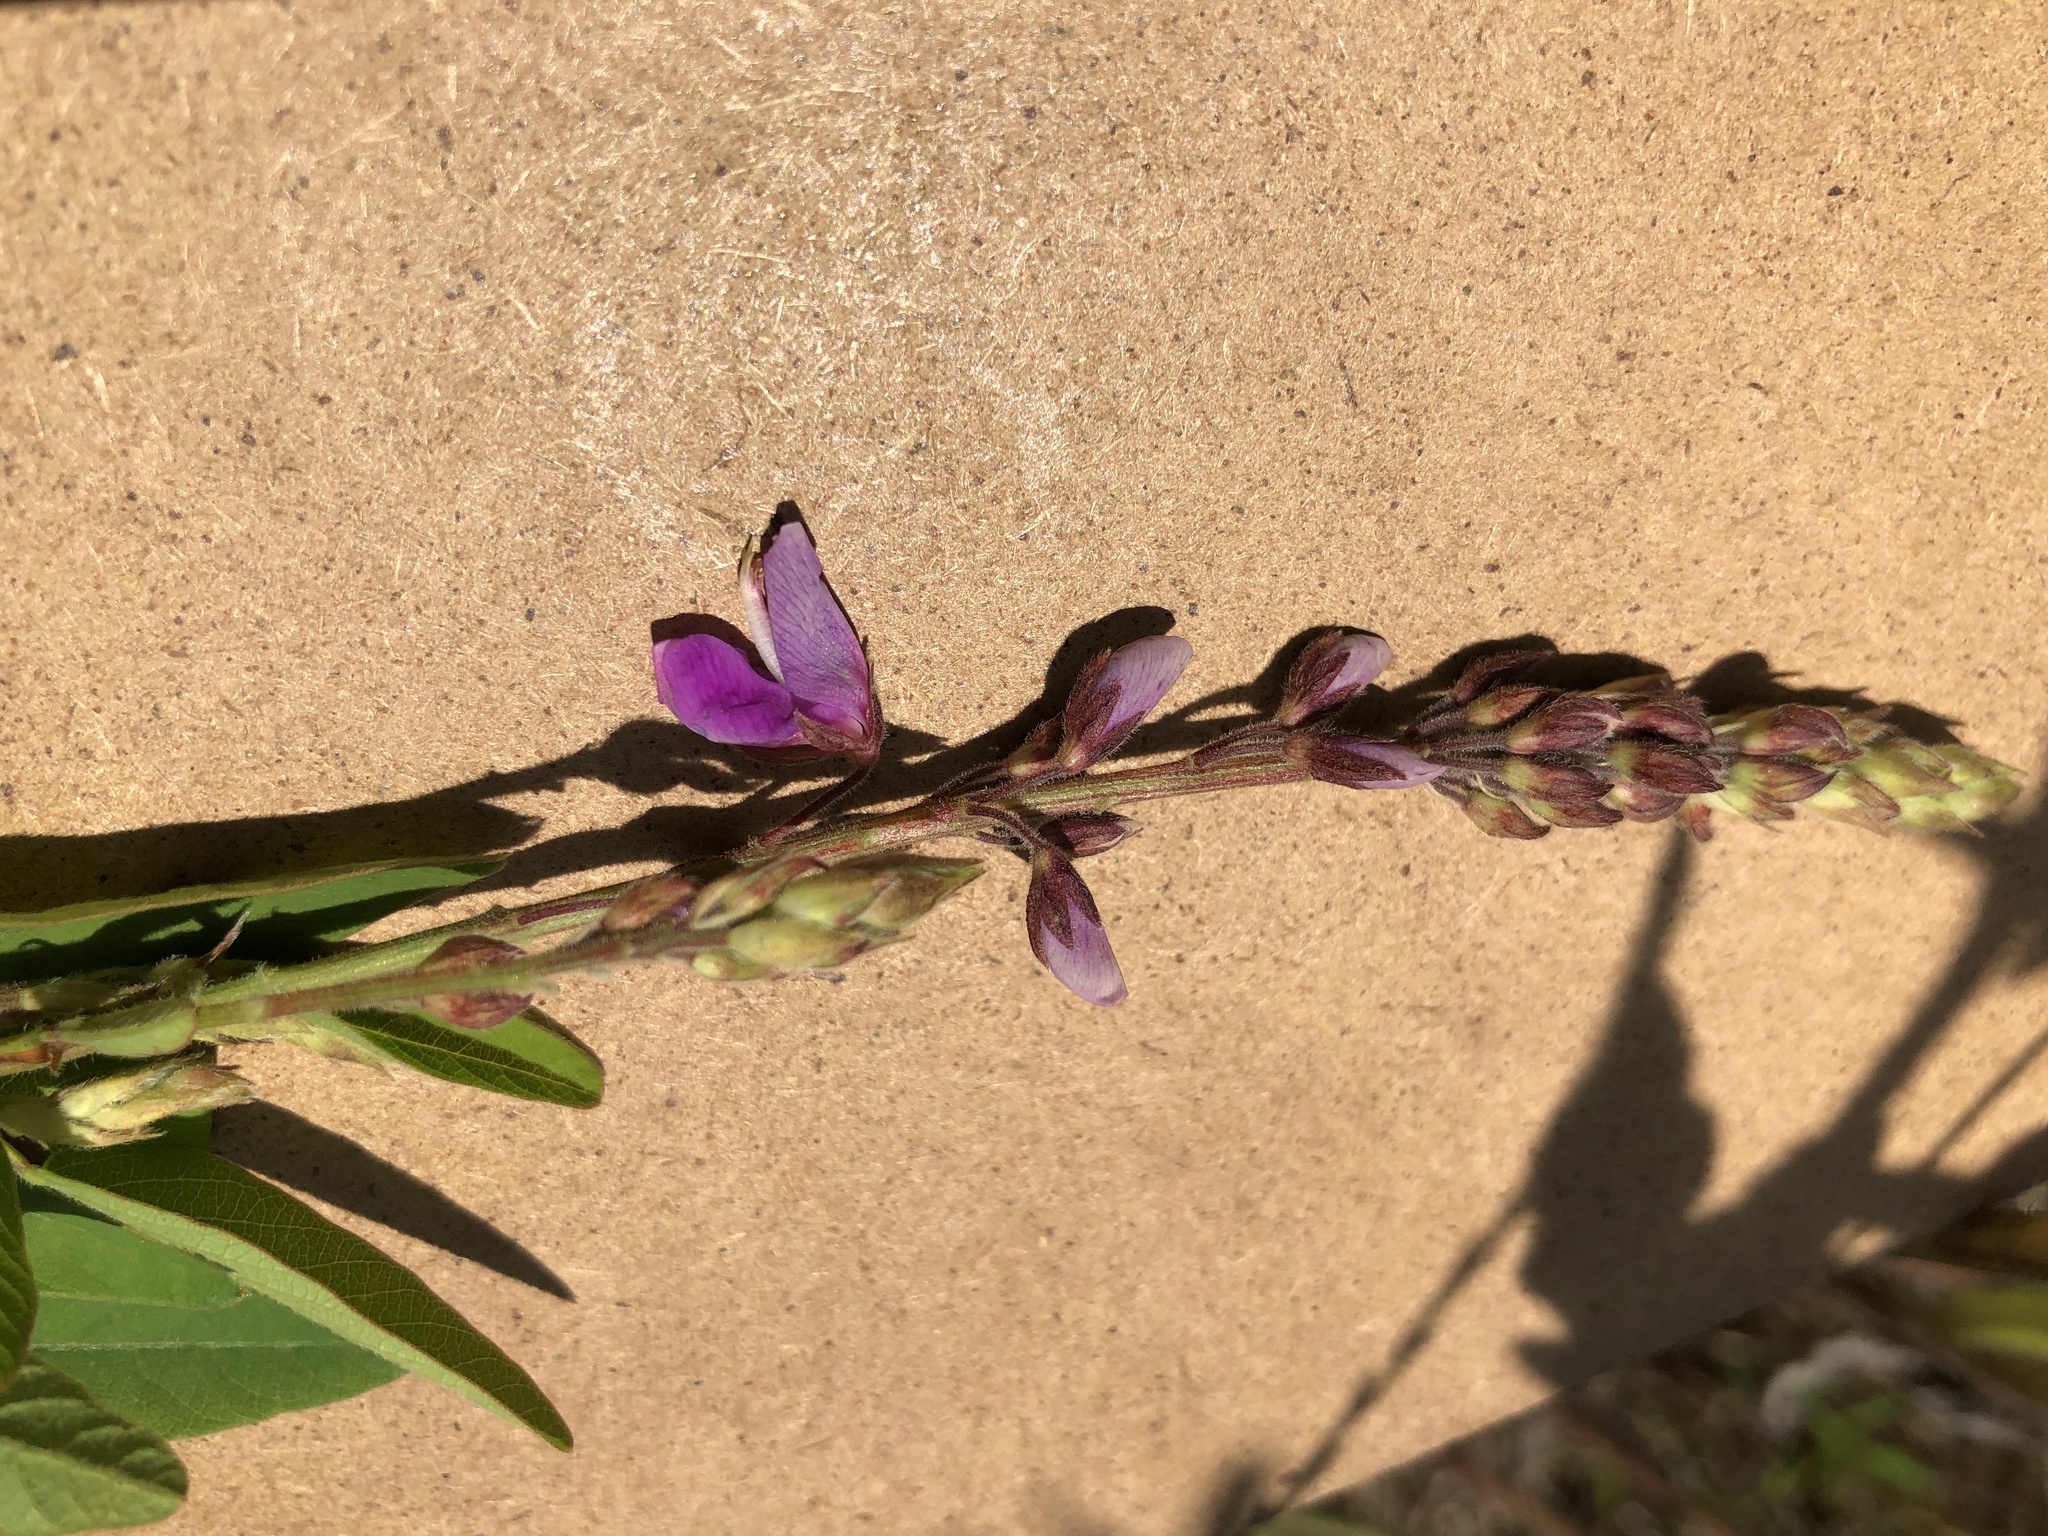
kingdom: Plantae
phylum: Tracheophyta
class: Magnoliopsida
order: Fabales
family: Fabaceae
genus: Desmodium
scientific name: Desmodium canadense
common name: Canada tick-trefoil
